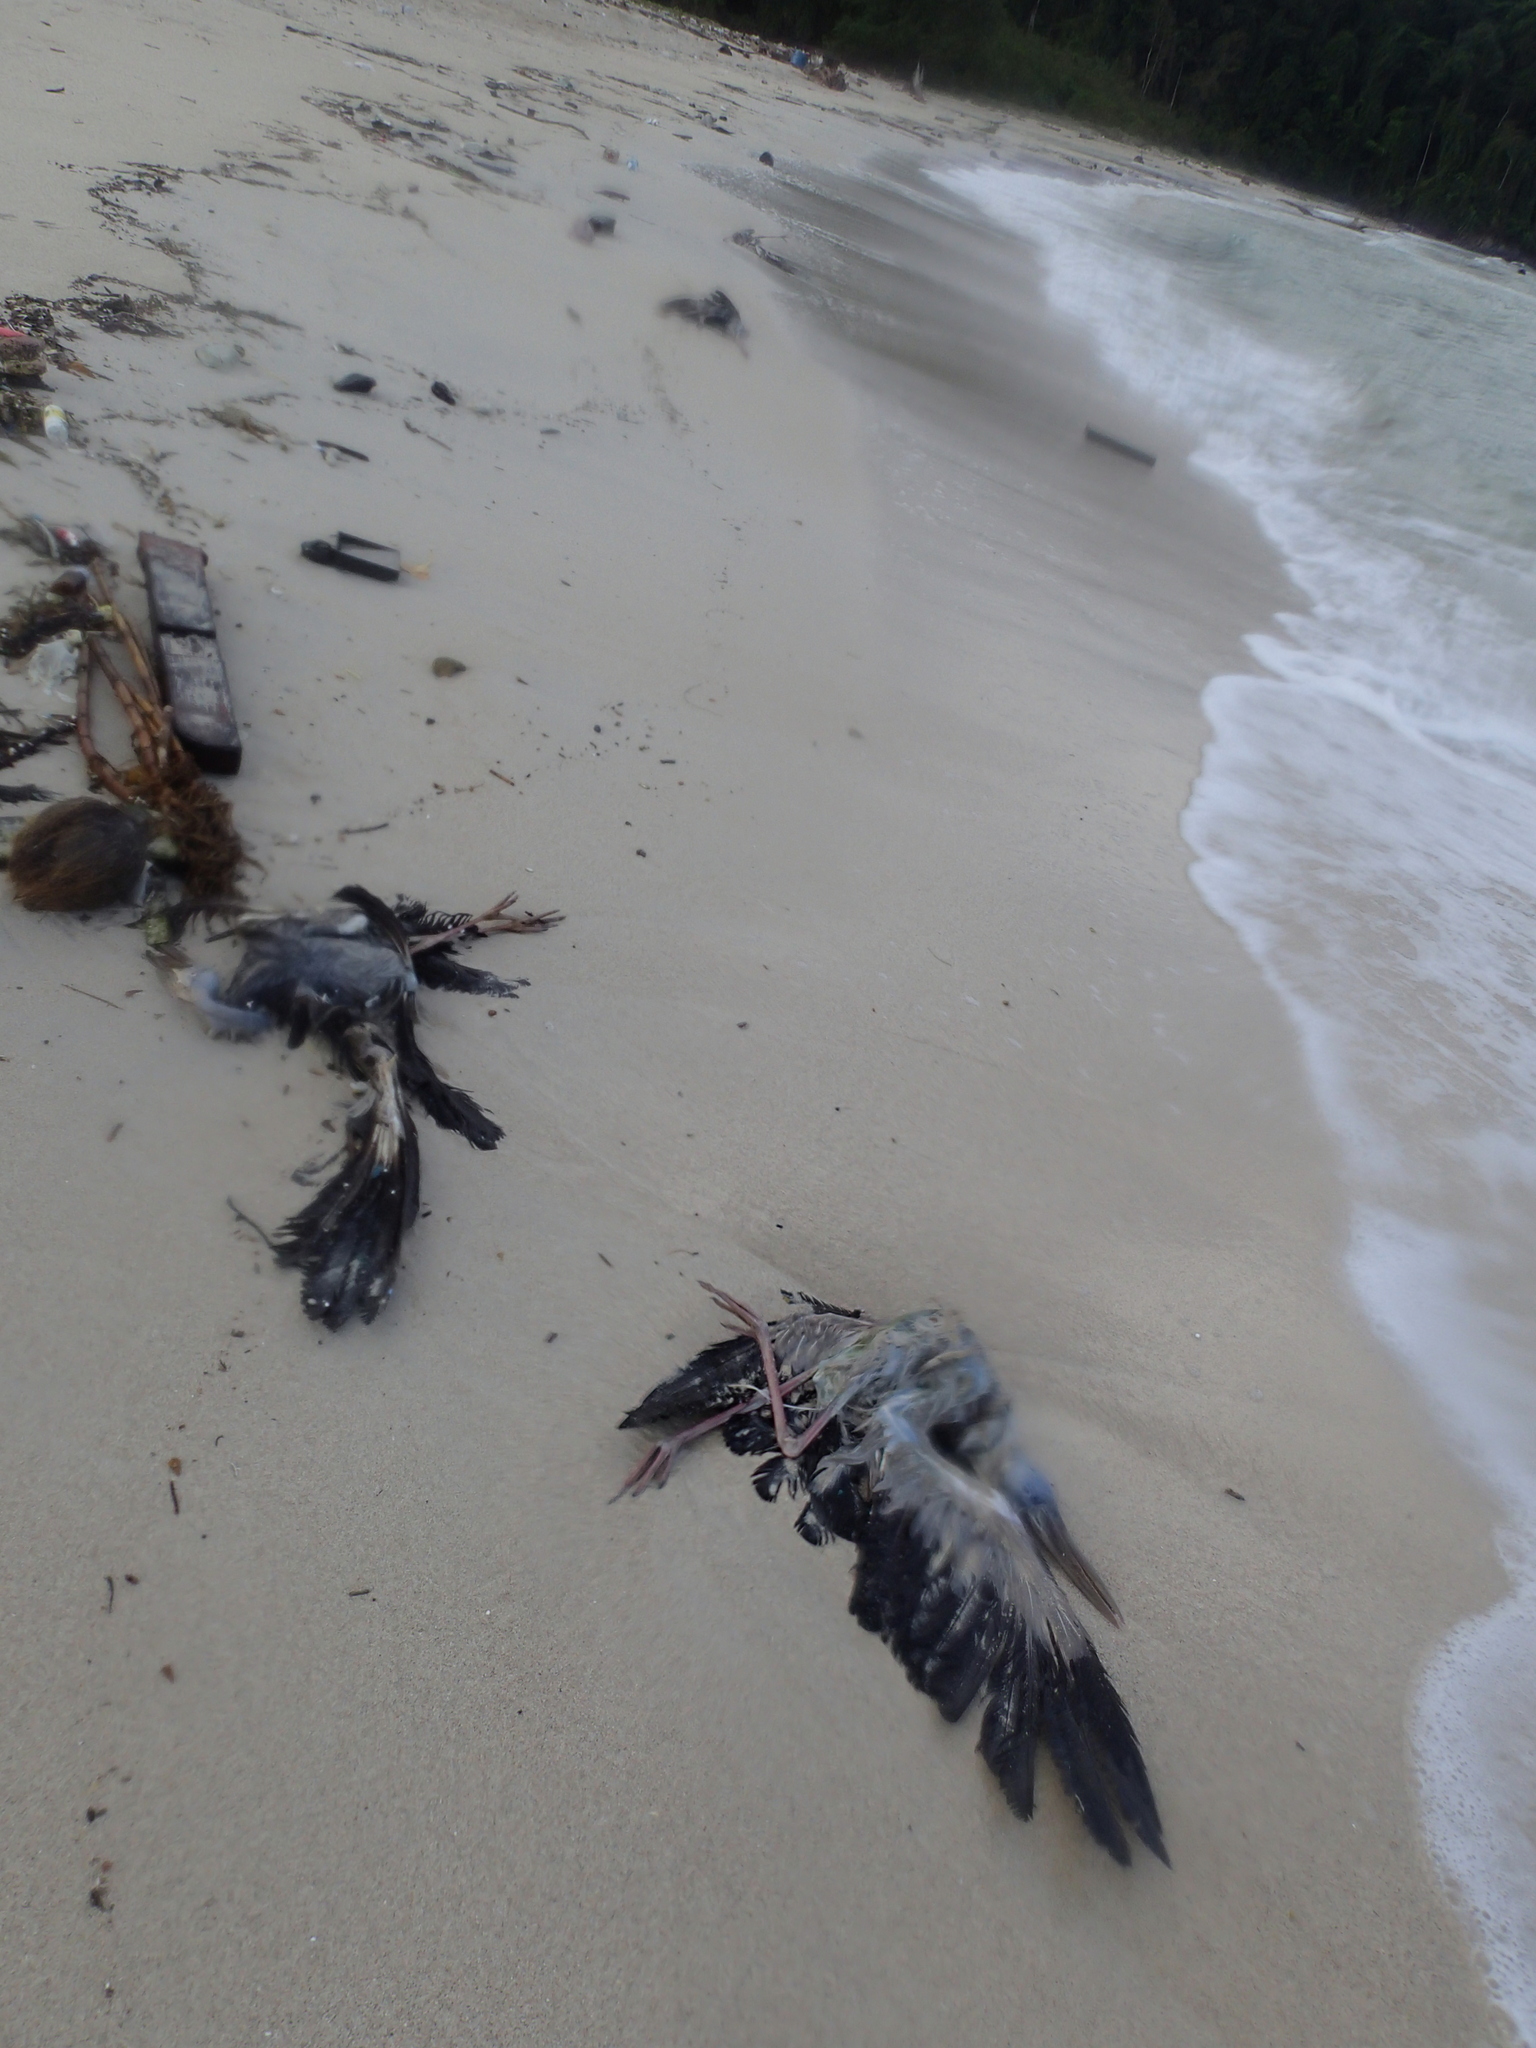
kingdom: Animalia
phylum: Chordata
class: Aves
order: Ciconiiformes
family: Ciconiidae
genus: Anastomus
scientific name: Anastomus oscitans
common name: Asian openbill
